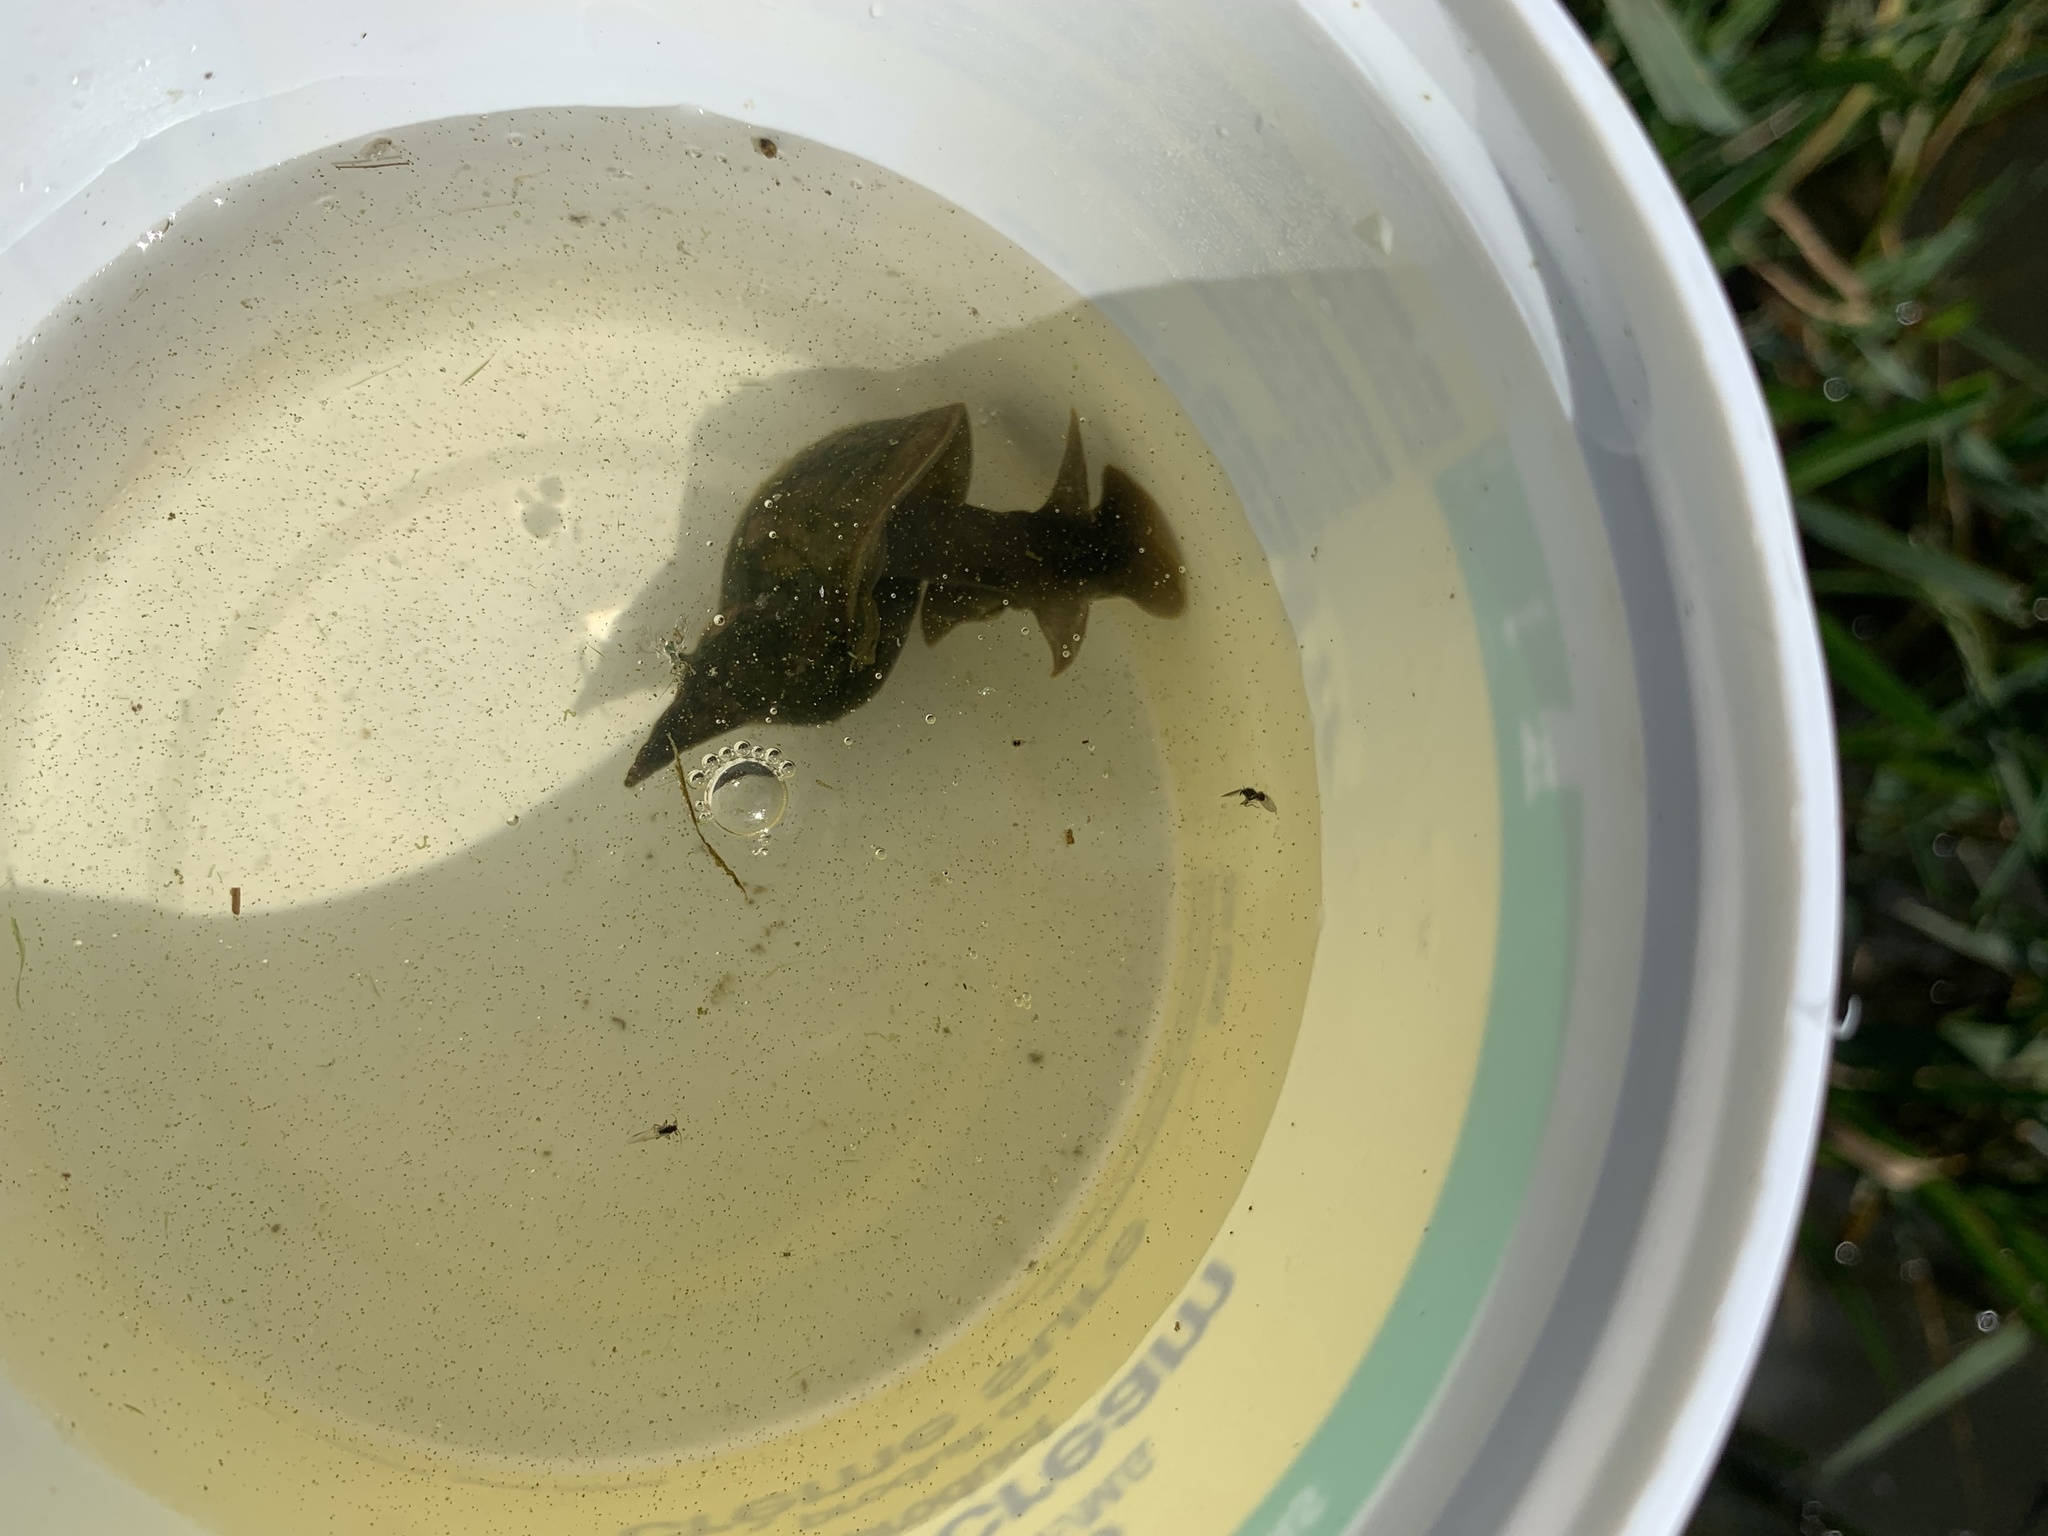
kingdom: Animalia
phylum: Mollusca
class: Gastropoda
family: Lymnaeidae
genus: Lymnaea
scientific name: Lymnaea stagnalis
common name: Great pond snail
